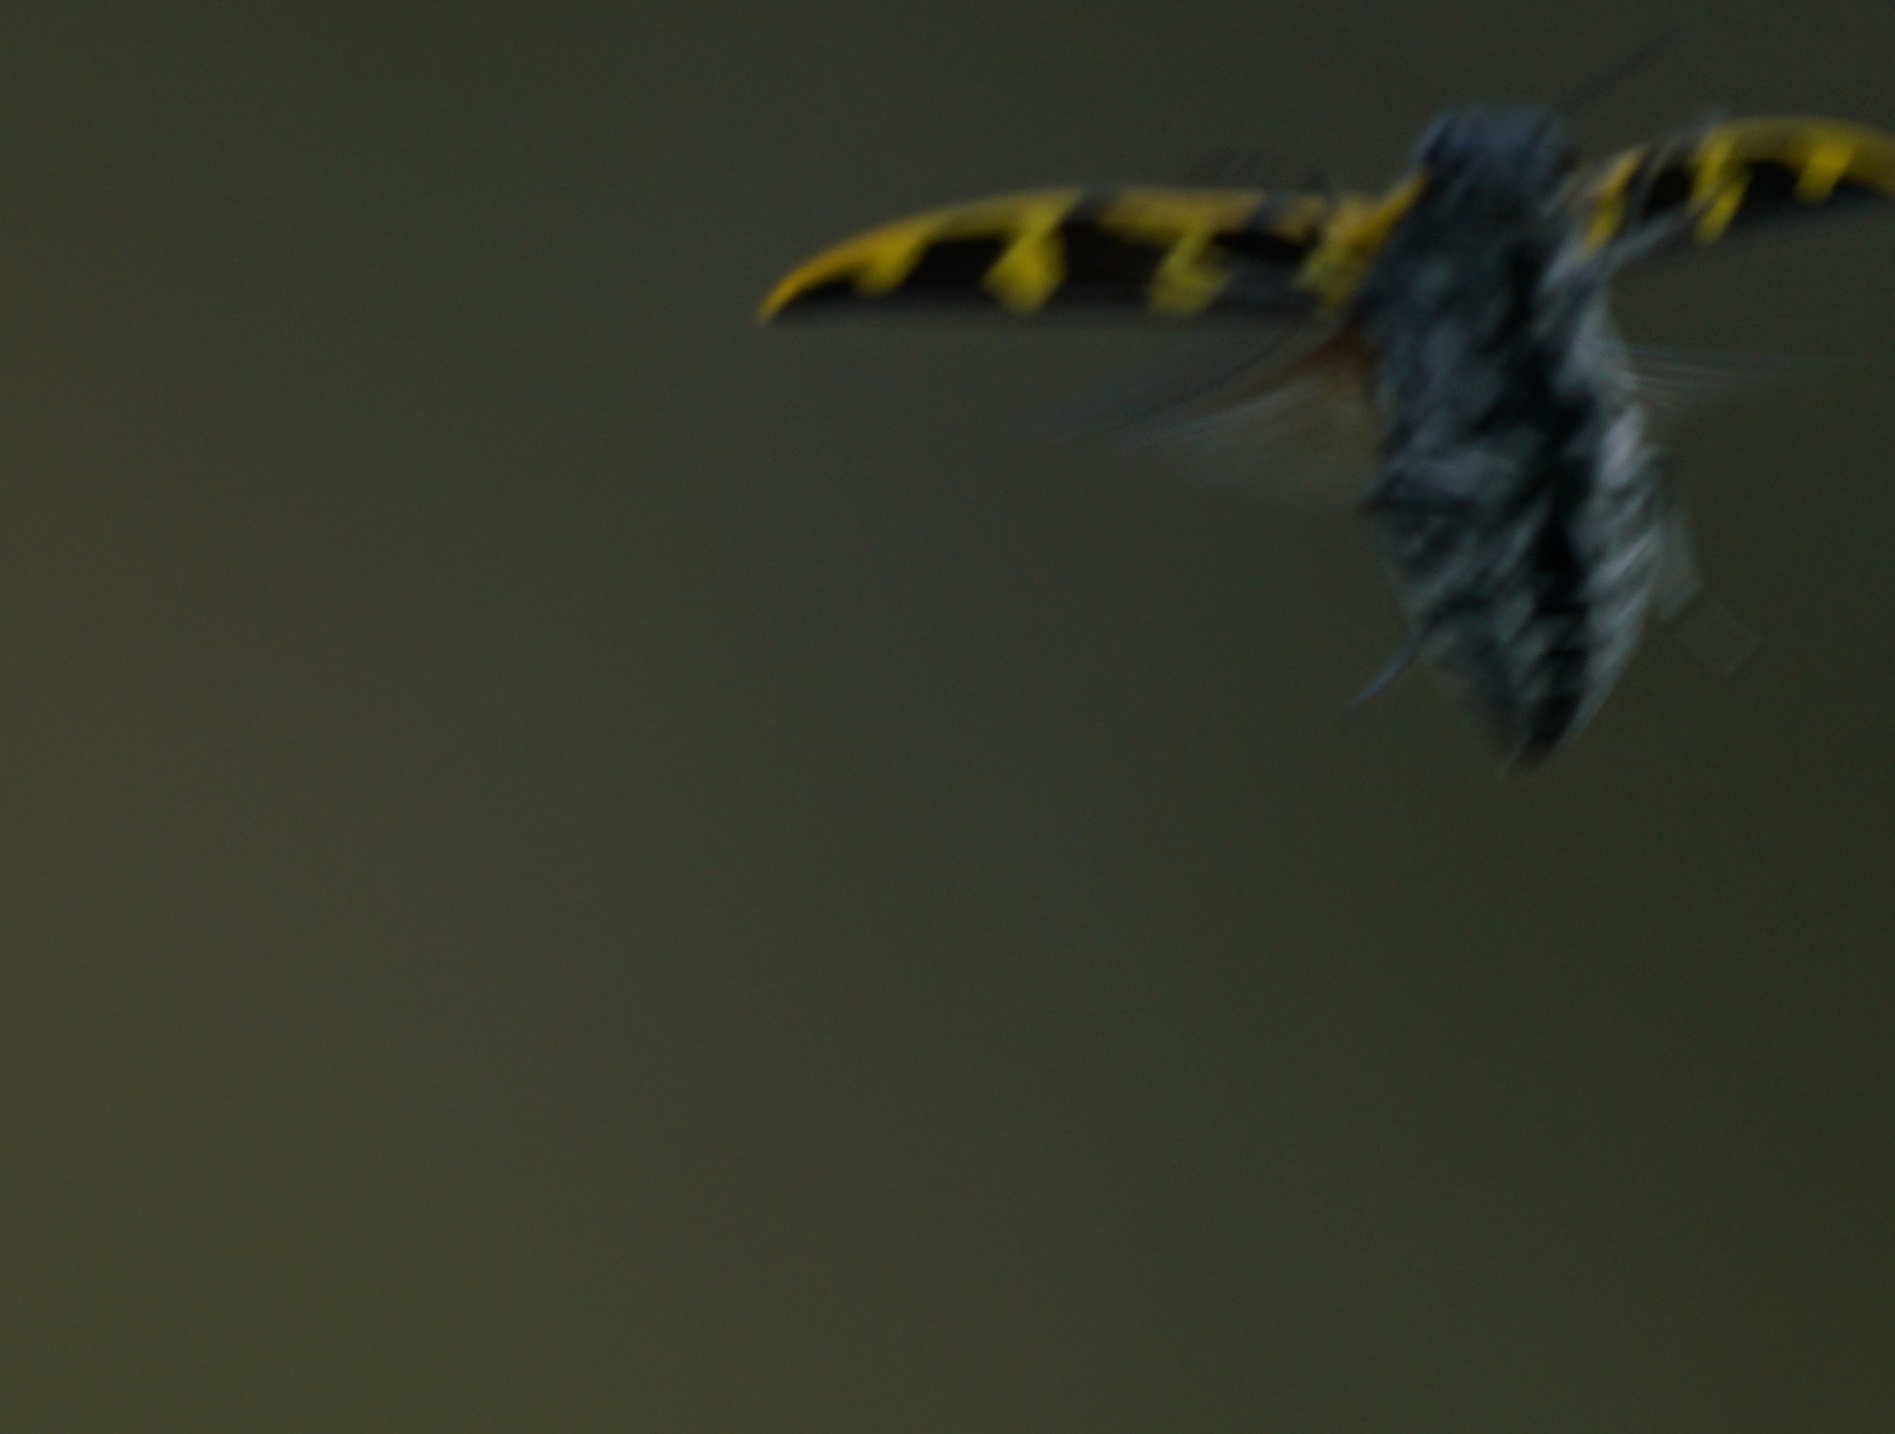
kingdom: Animalia
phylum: Arthropoda
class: Insecta
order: Coleoptera
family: Buprestidae
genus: Cyrioides
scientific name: Cyrioides imperialis
